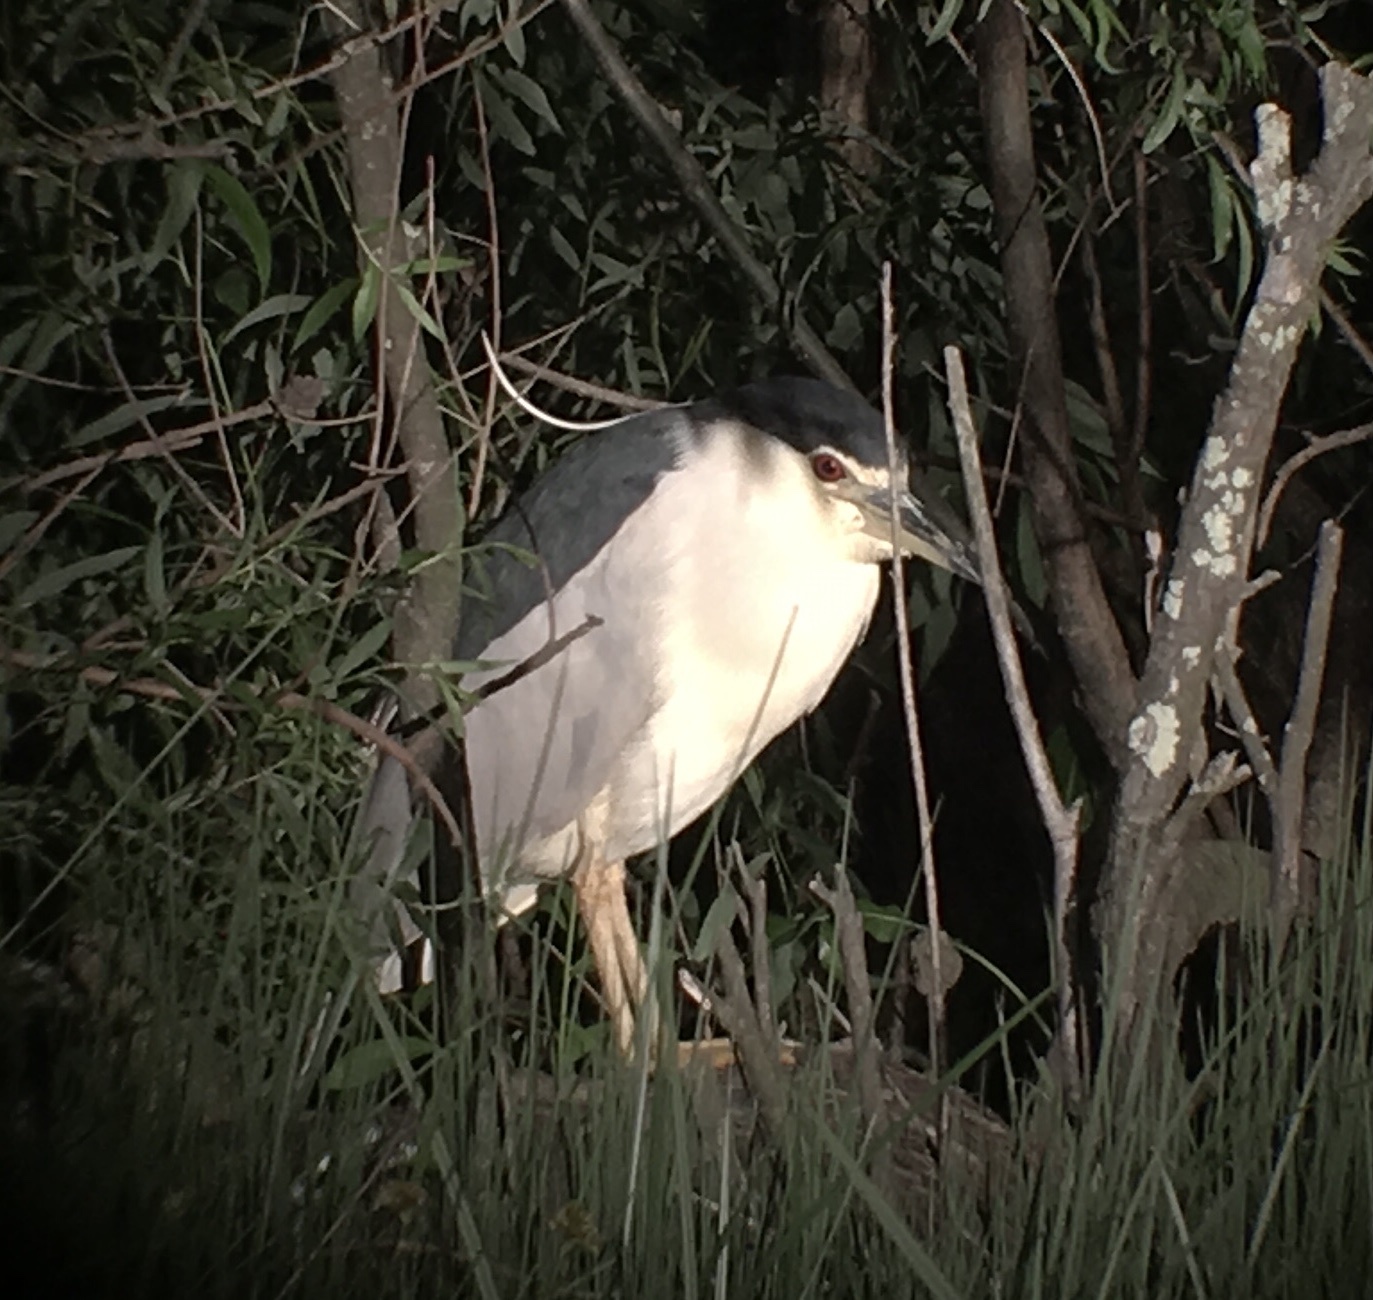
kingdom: Animalia
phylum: Chordata
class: Aves
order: Pelecaniformes
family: Ardeidae
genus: Nycticorax
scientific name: Nycticorax nycticorax
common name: Black-crowned night heron
